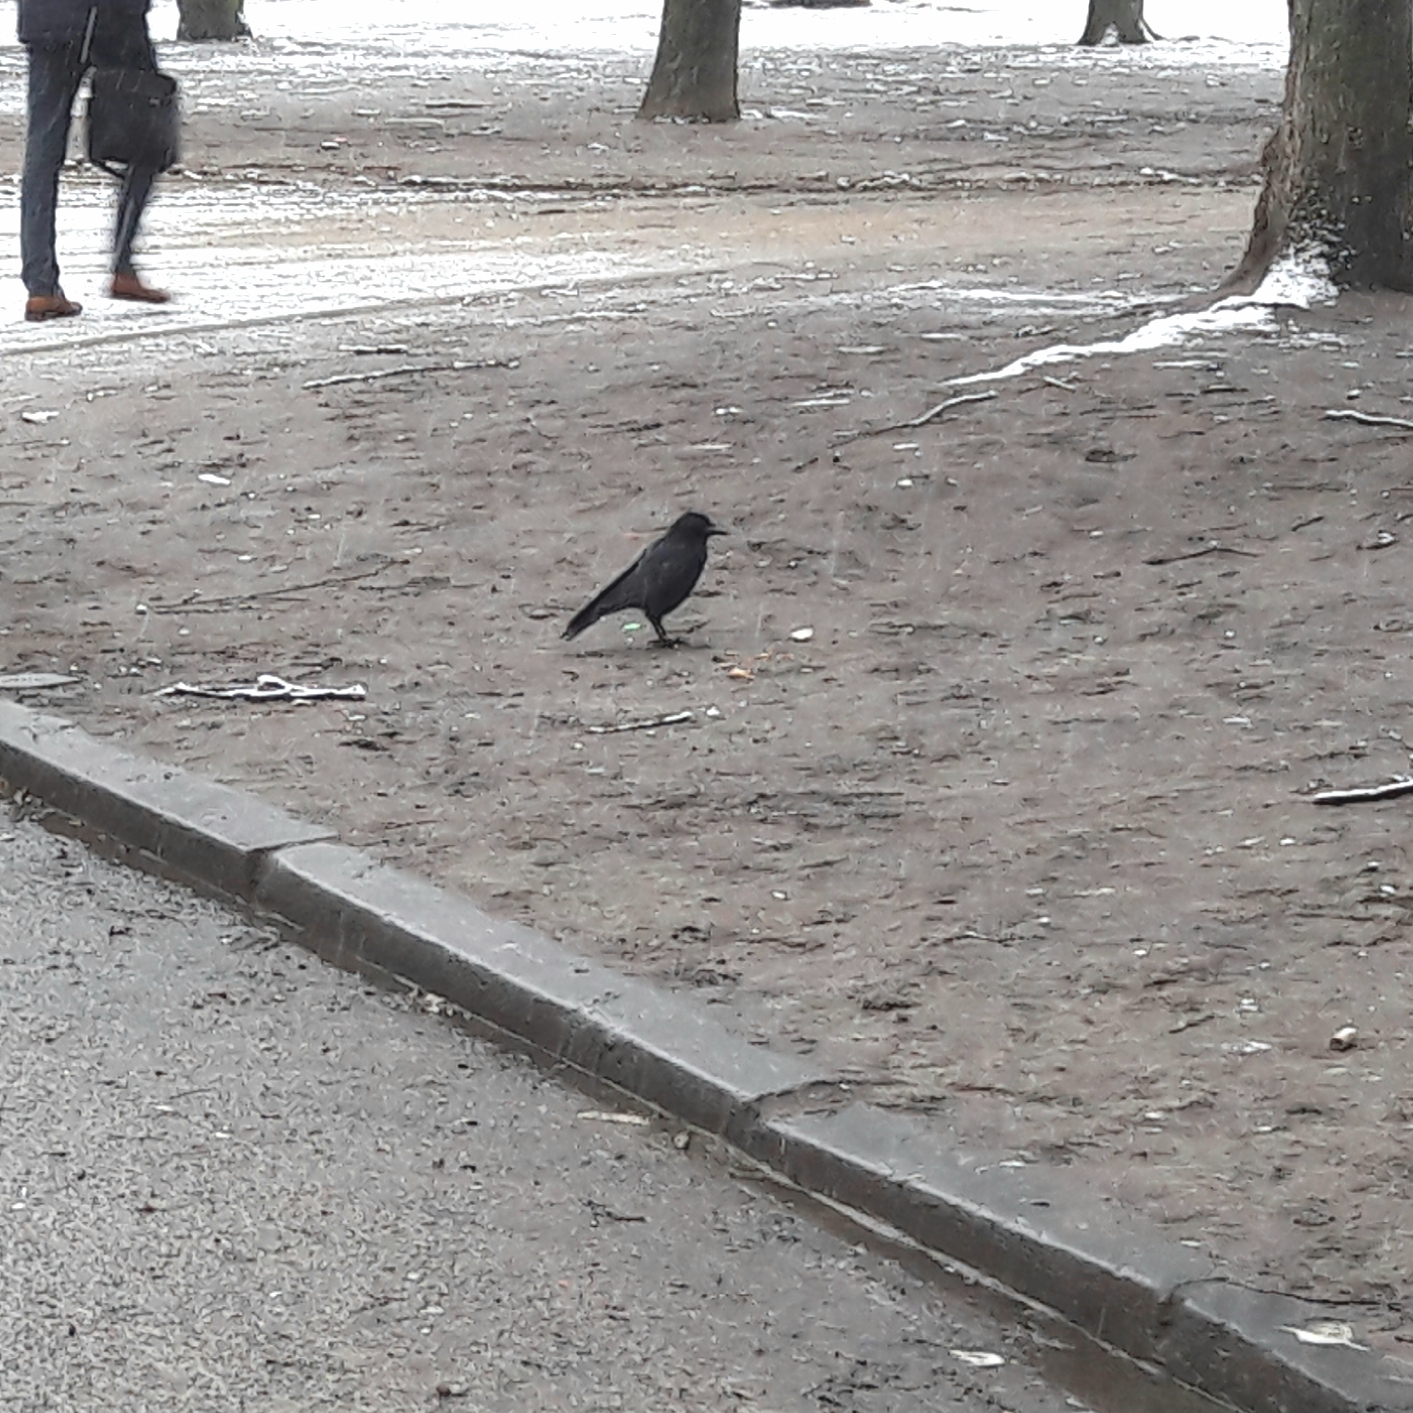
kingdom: Animalia
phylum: Chordata
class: Aves
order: Passeriformes
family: Corvidae
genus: Corvus
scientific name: Corvus corone
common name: Carrion crow
